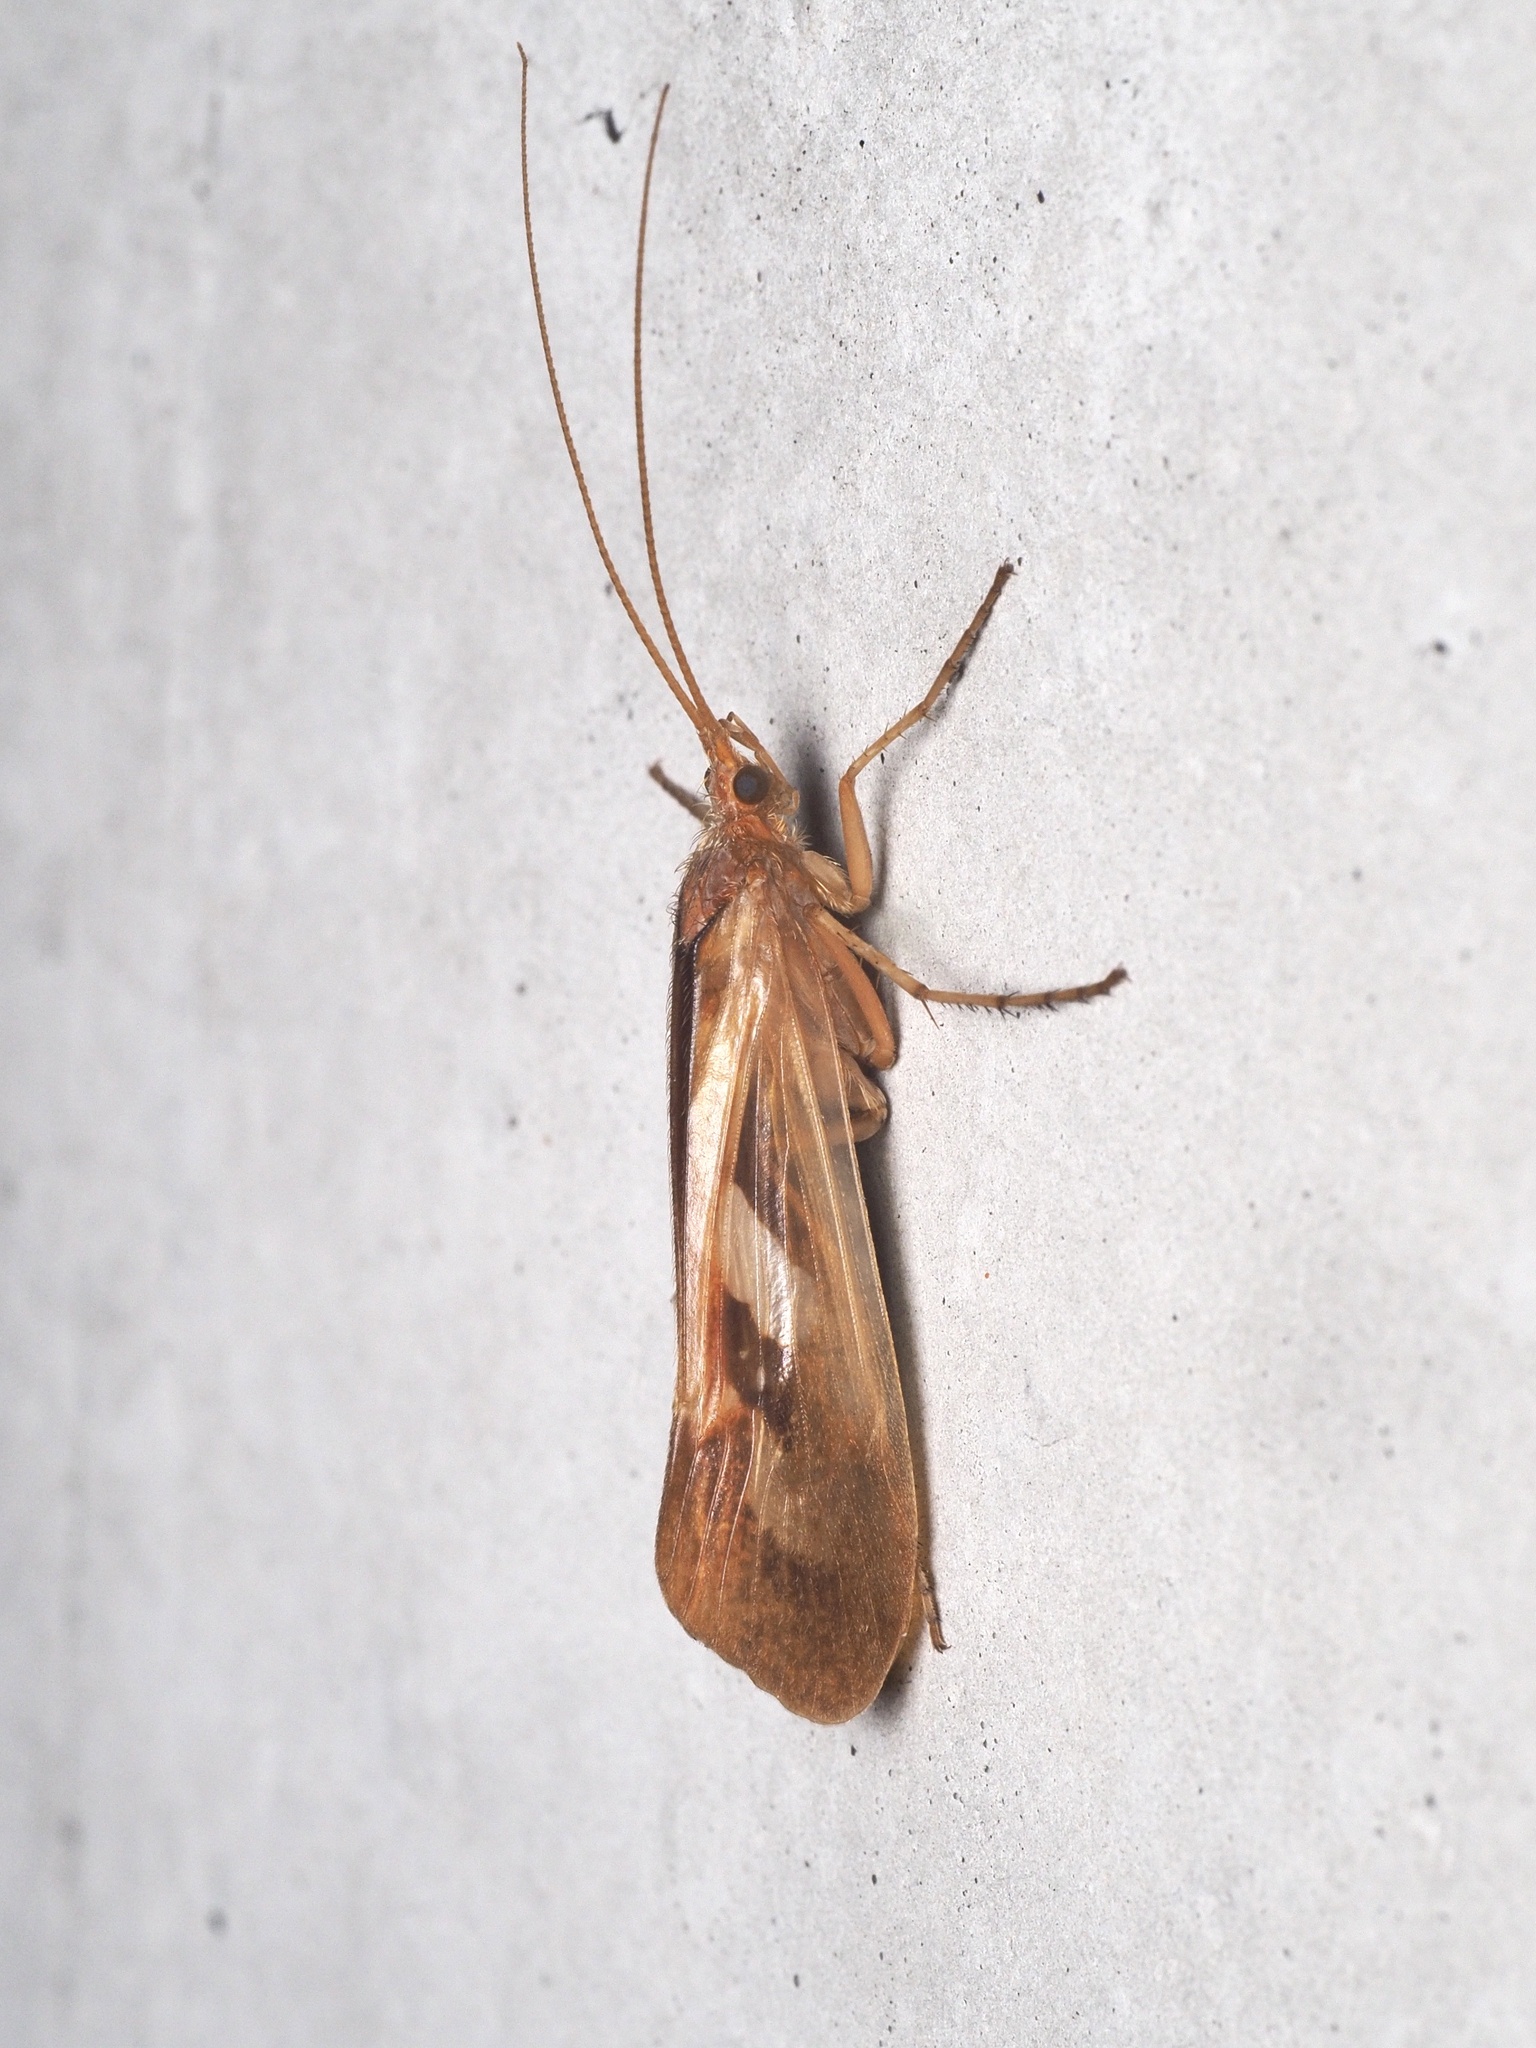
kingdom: Animalia
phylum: Arthropoda
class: Insecta
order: Trichoptera
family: Limnephilidae
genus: Limnephilus
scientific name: Limnephilus rhombicus
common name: Diamond northern caddisfly
